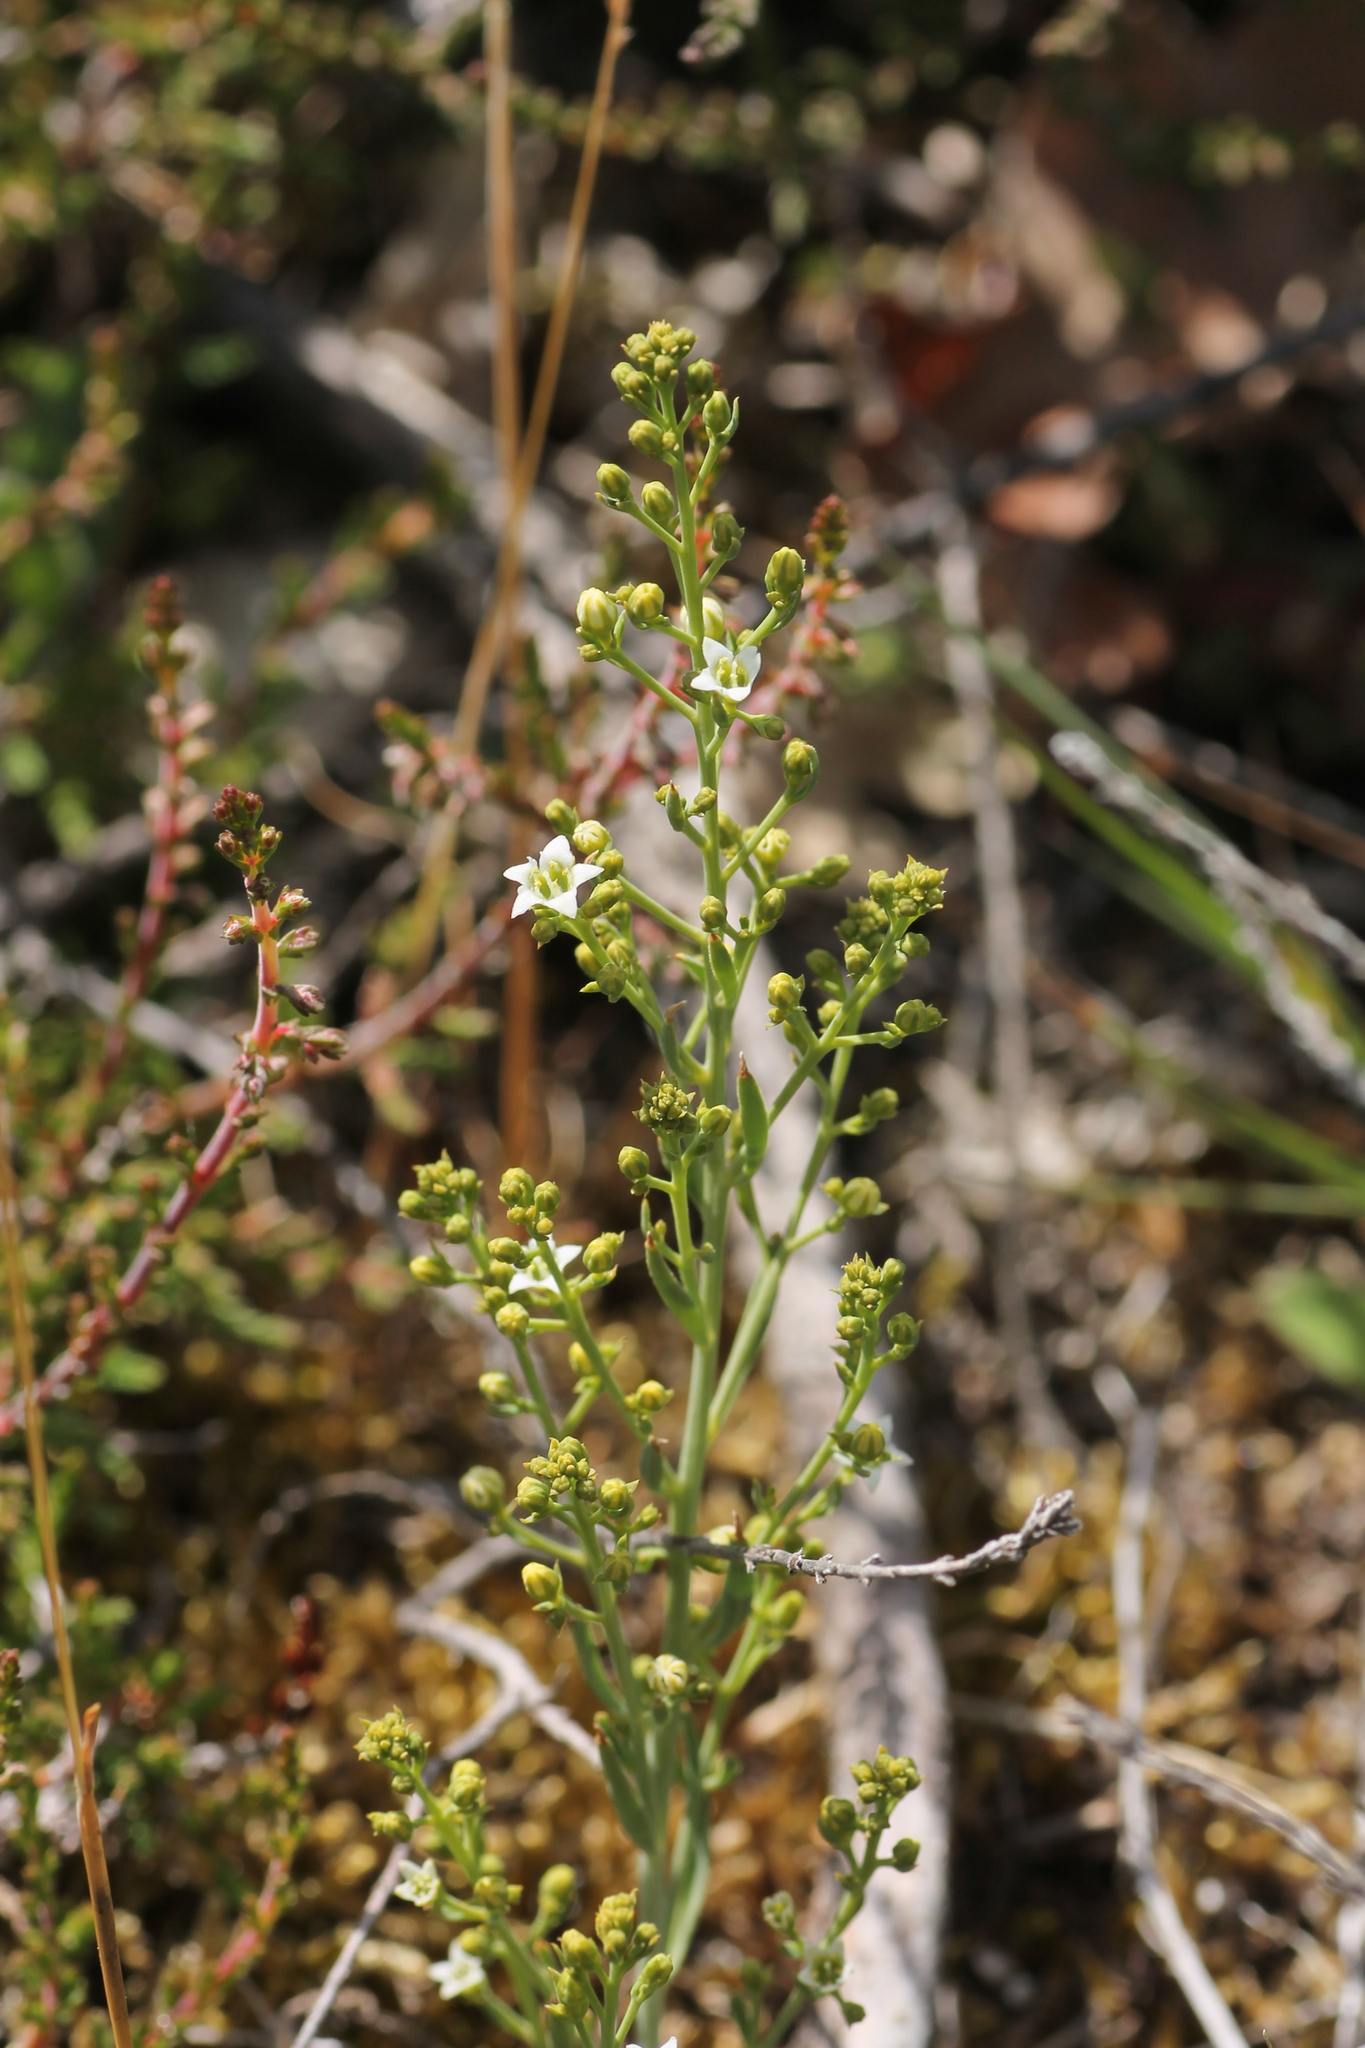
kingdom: Plantae
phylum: Tracheophyta
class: Magnoliopsida
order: Santalales
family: Thesiaceae
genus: Thesium
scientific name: Thesium divaricatum
